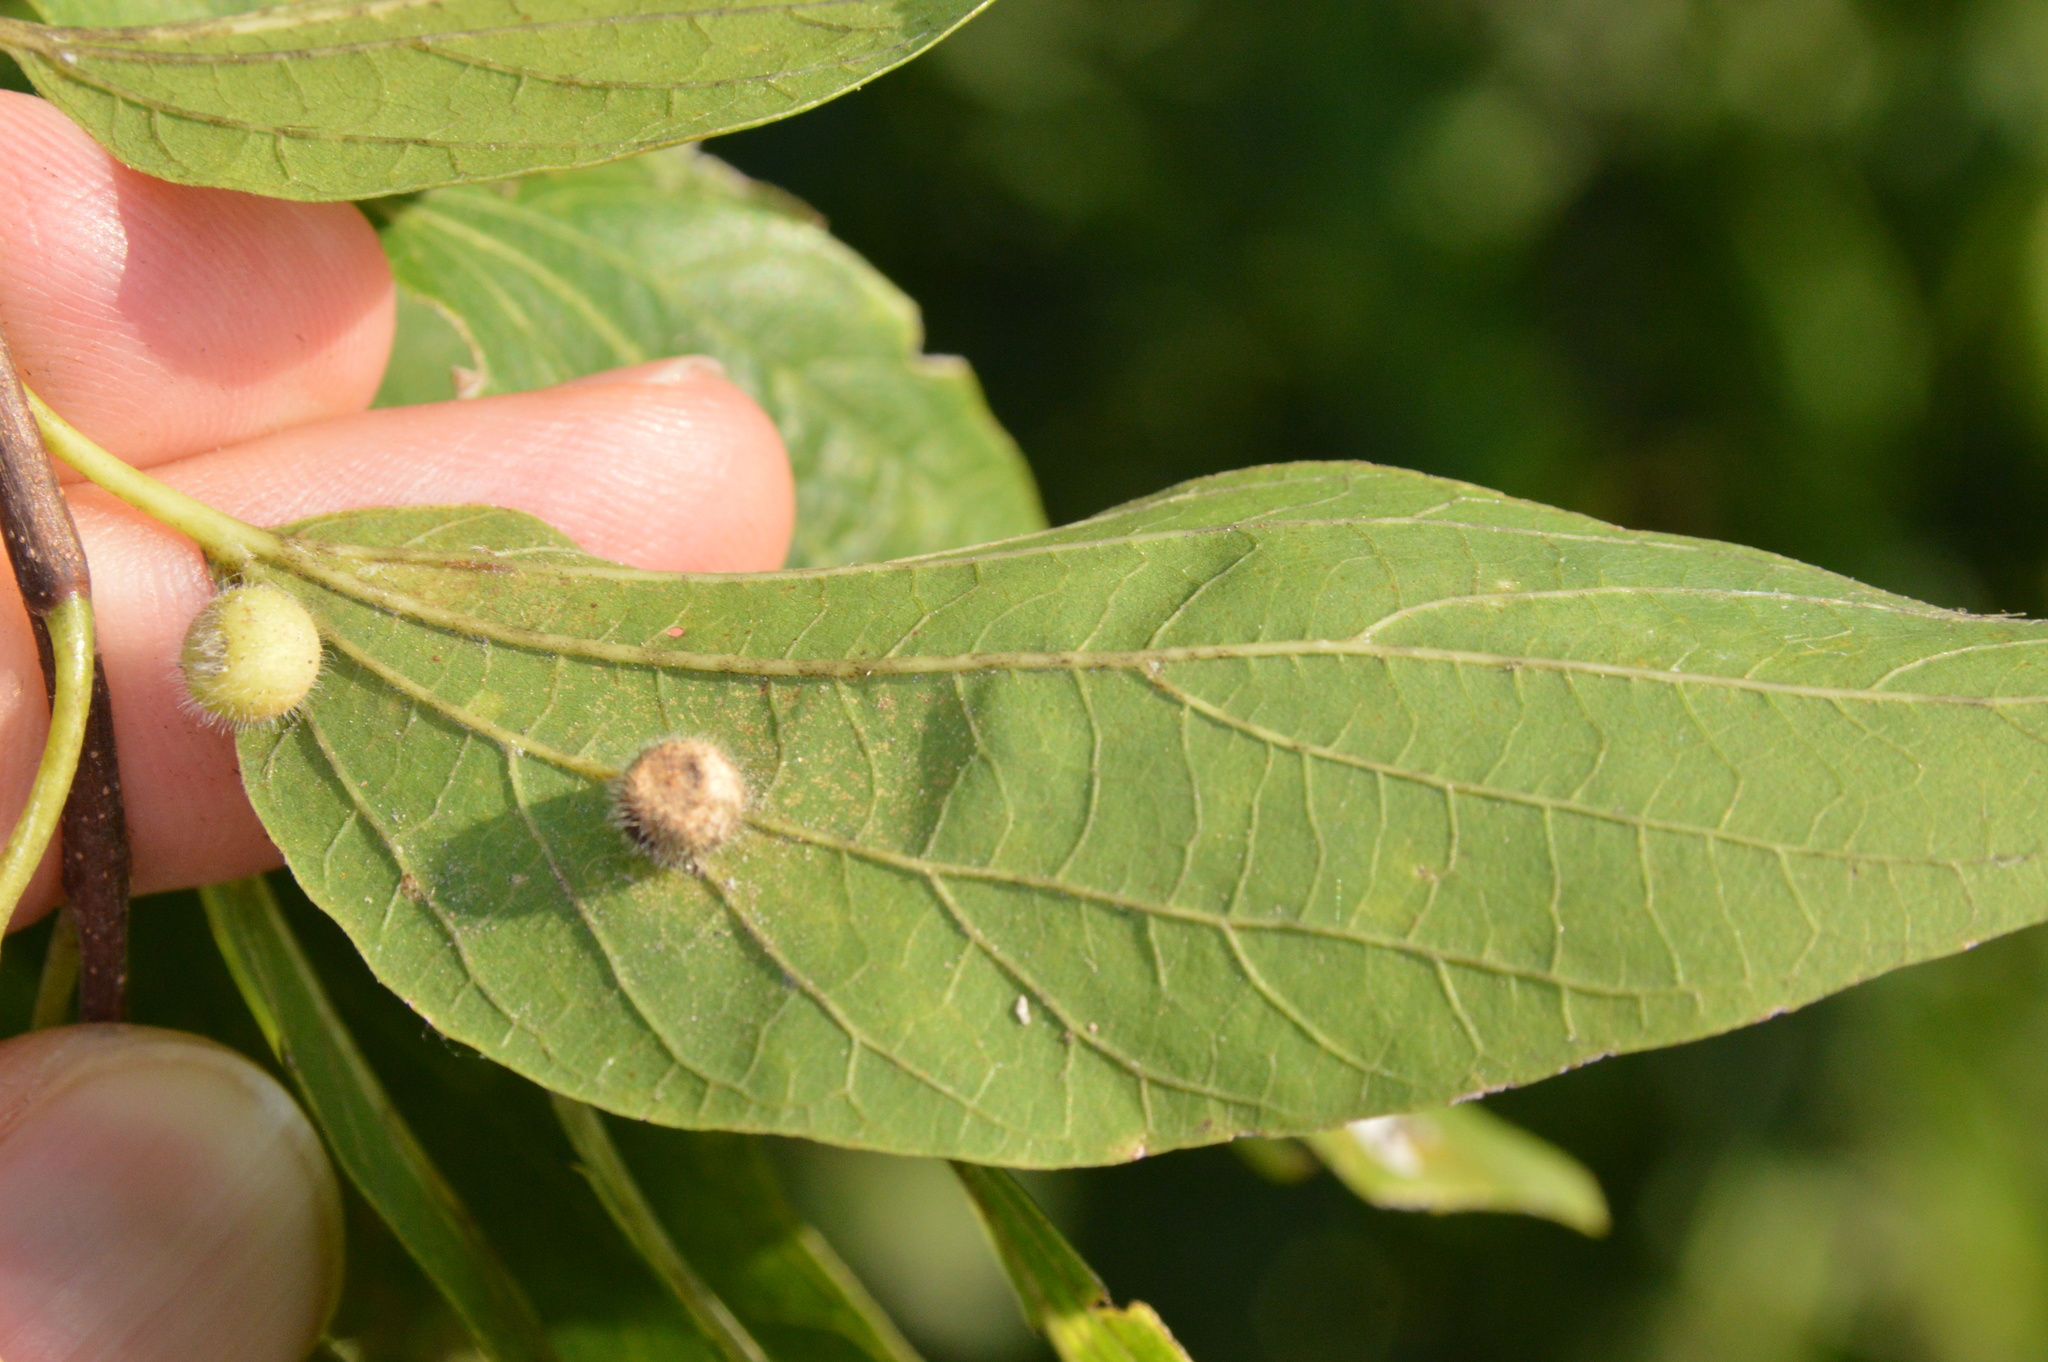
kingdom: Animalia
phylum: Arthropoda
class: Insecta
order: Diptera
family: Cecidomyiidae
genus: Celticecis
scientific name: Celticecis pubescens
